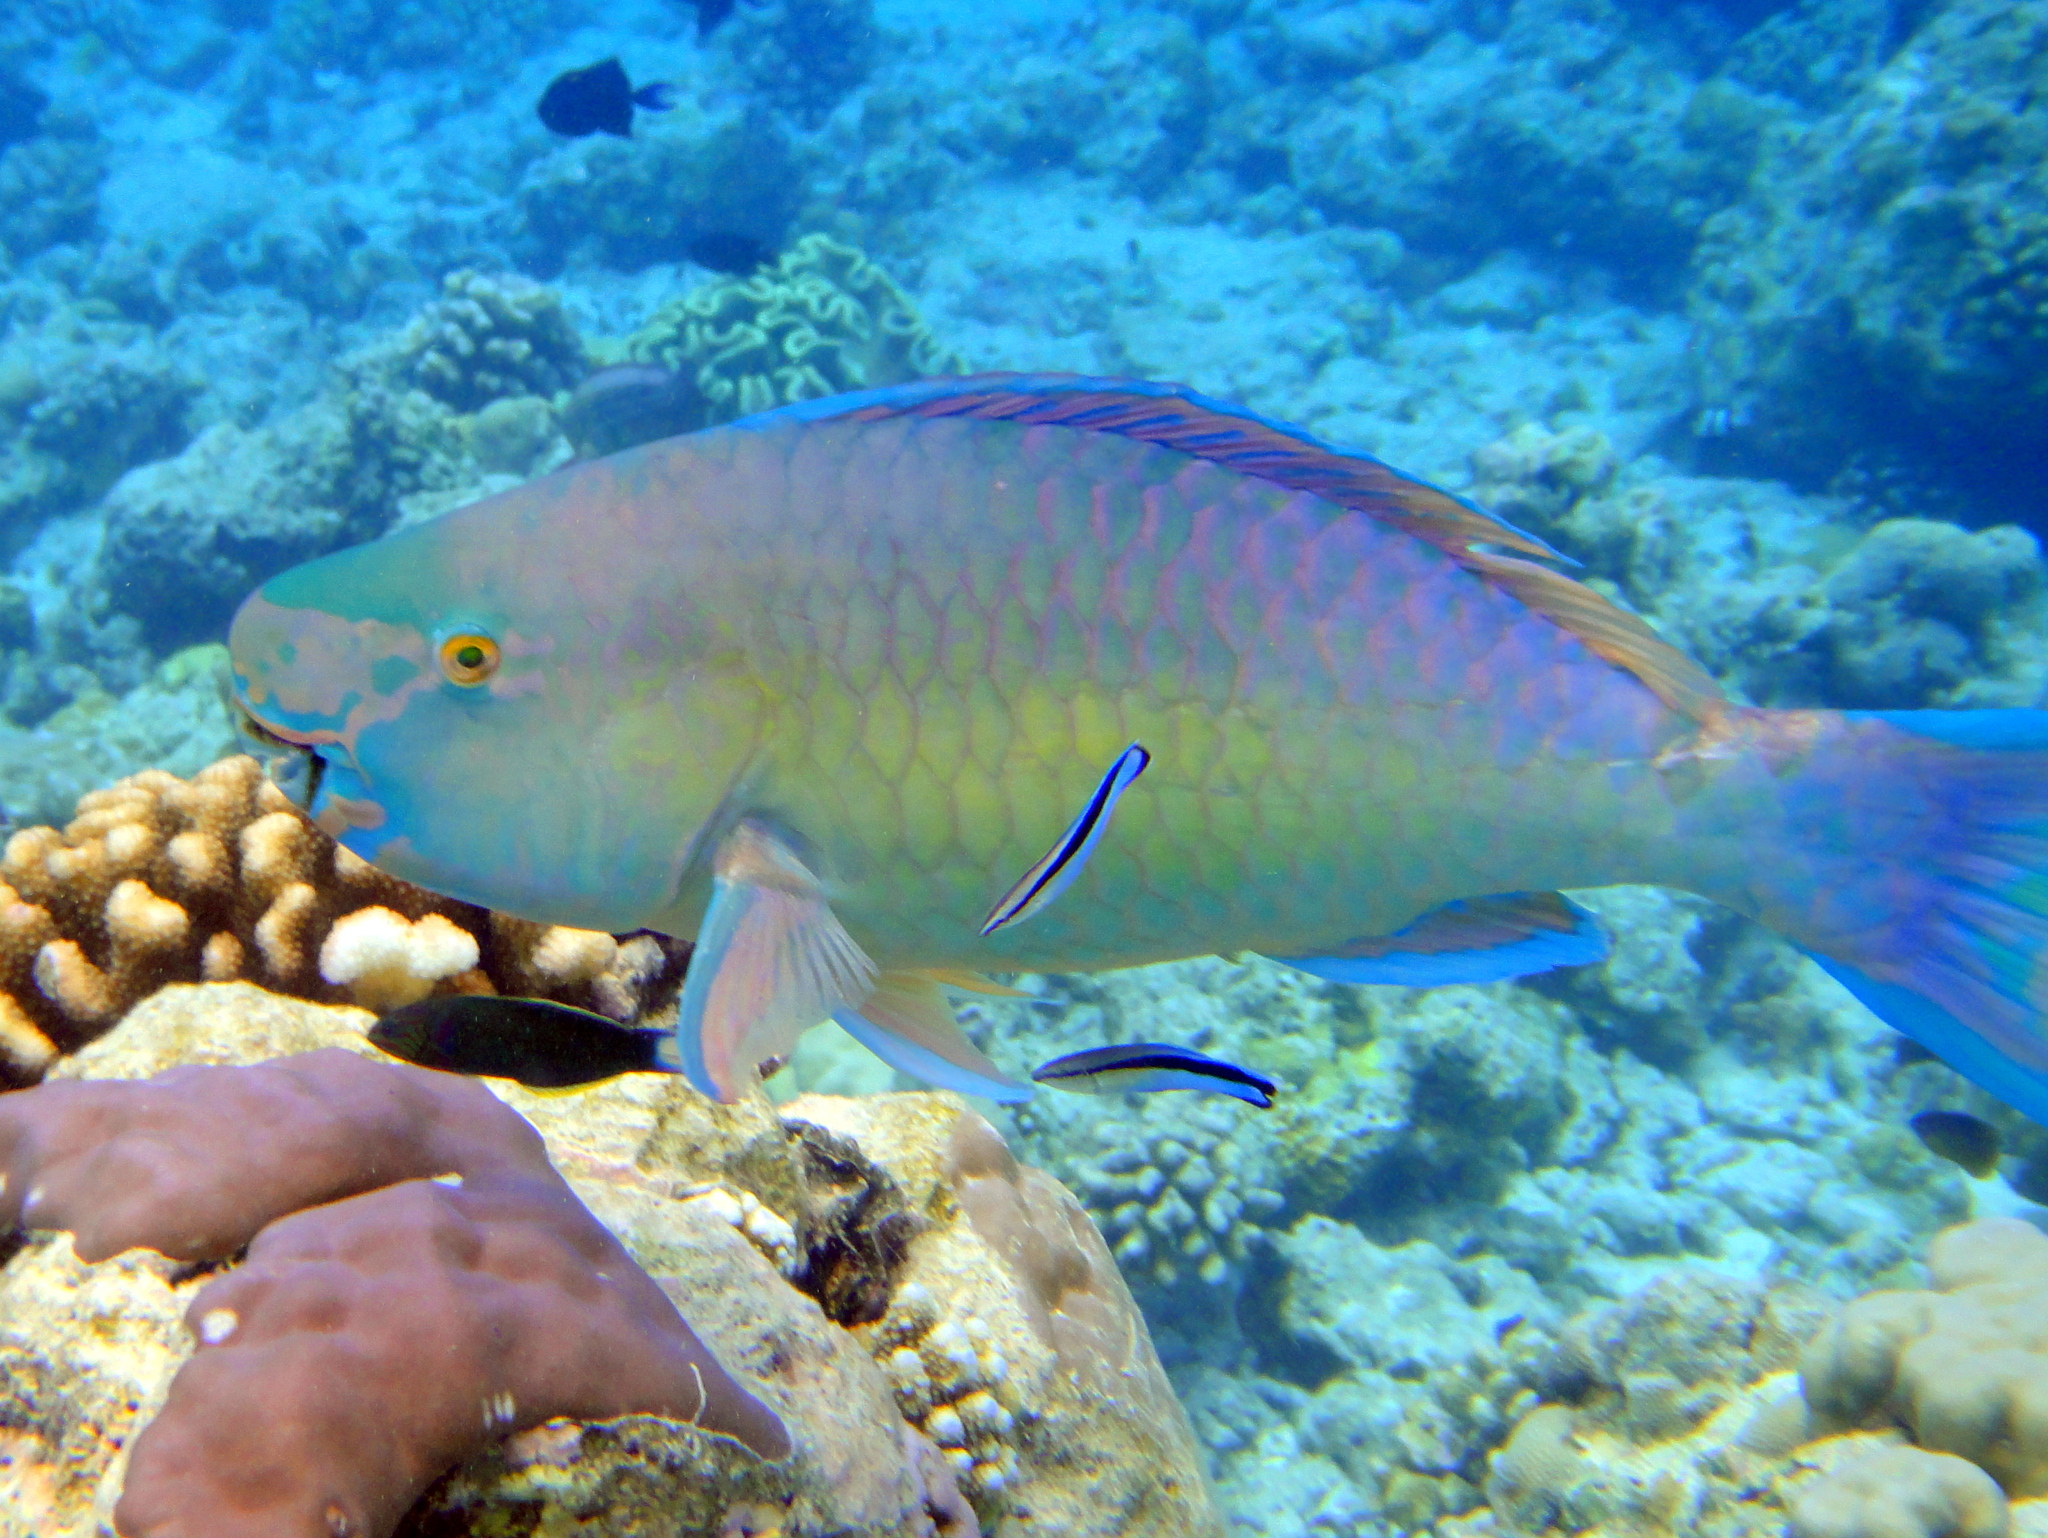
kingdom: Animalia
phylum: Chordata
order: Perciformes
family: Scaridae
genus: Scarus
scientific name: Scarus rubroviolaceus
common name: Ember parrotfish
